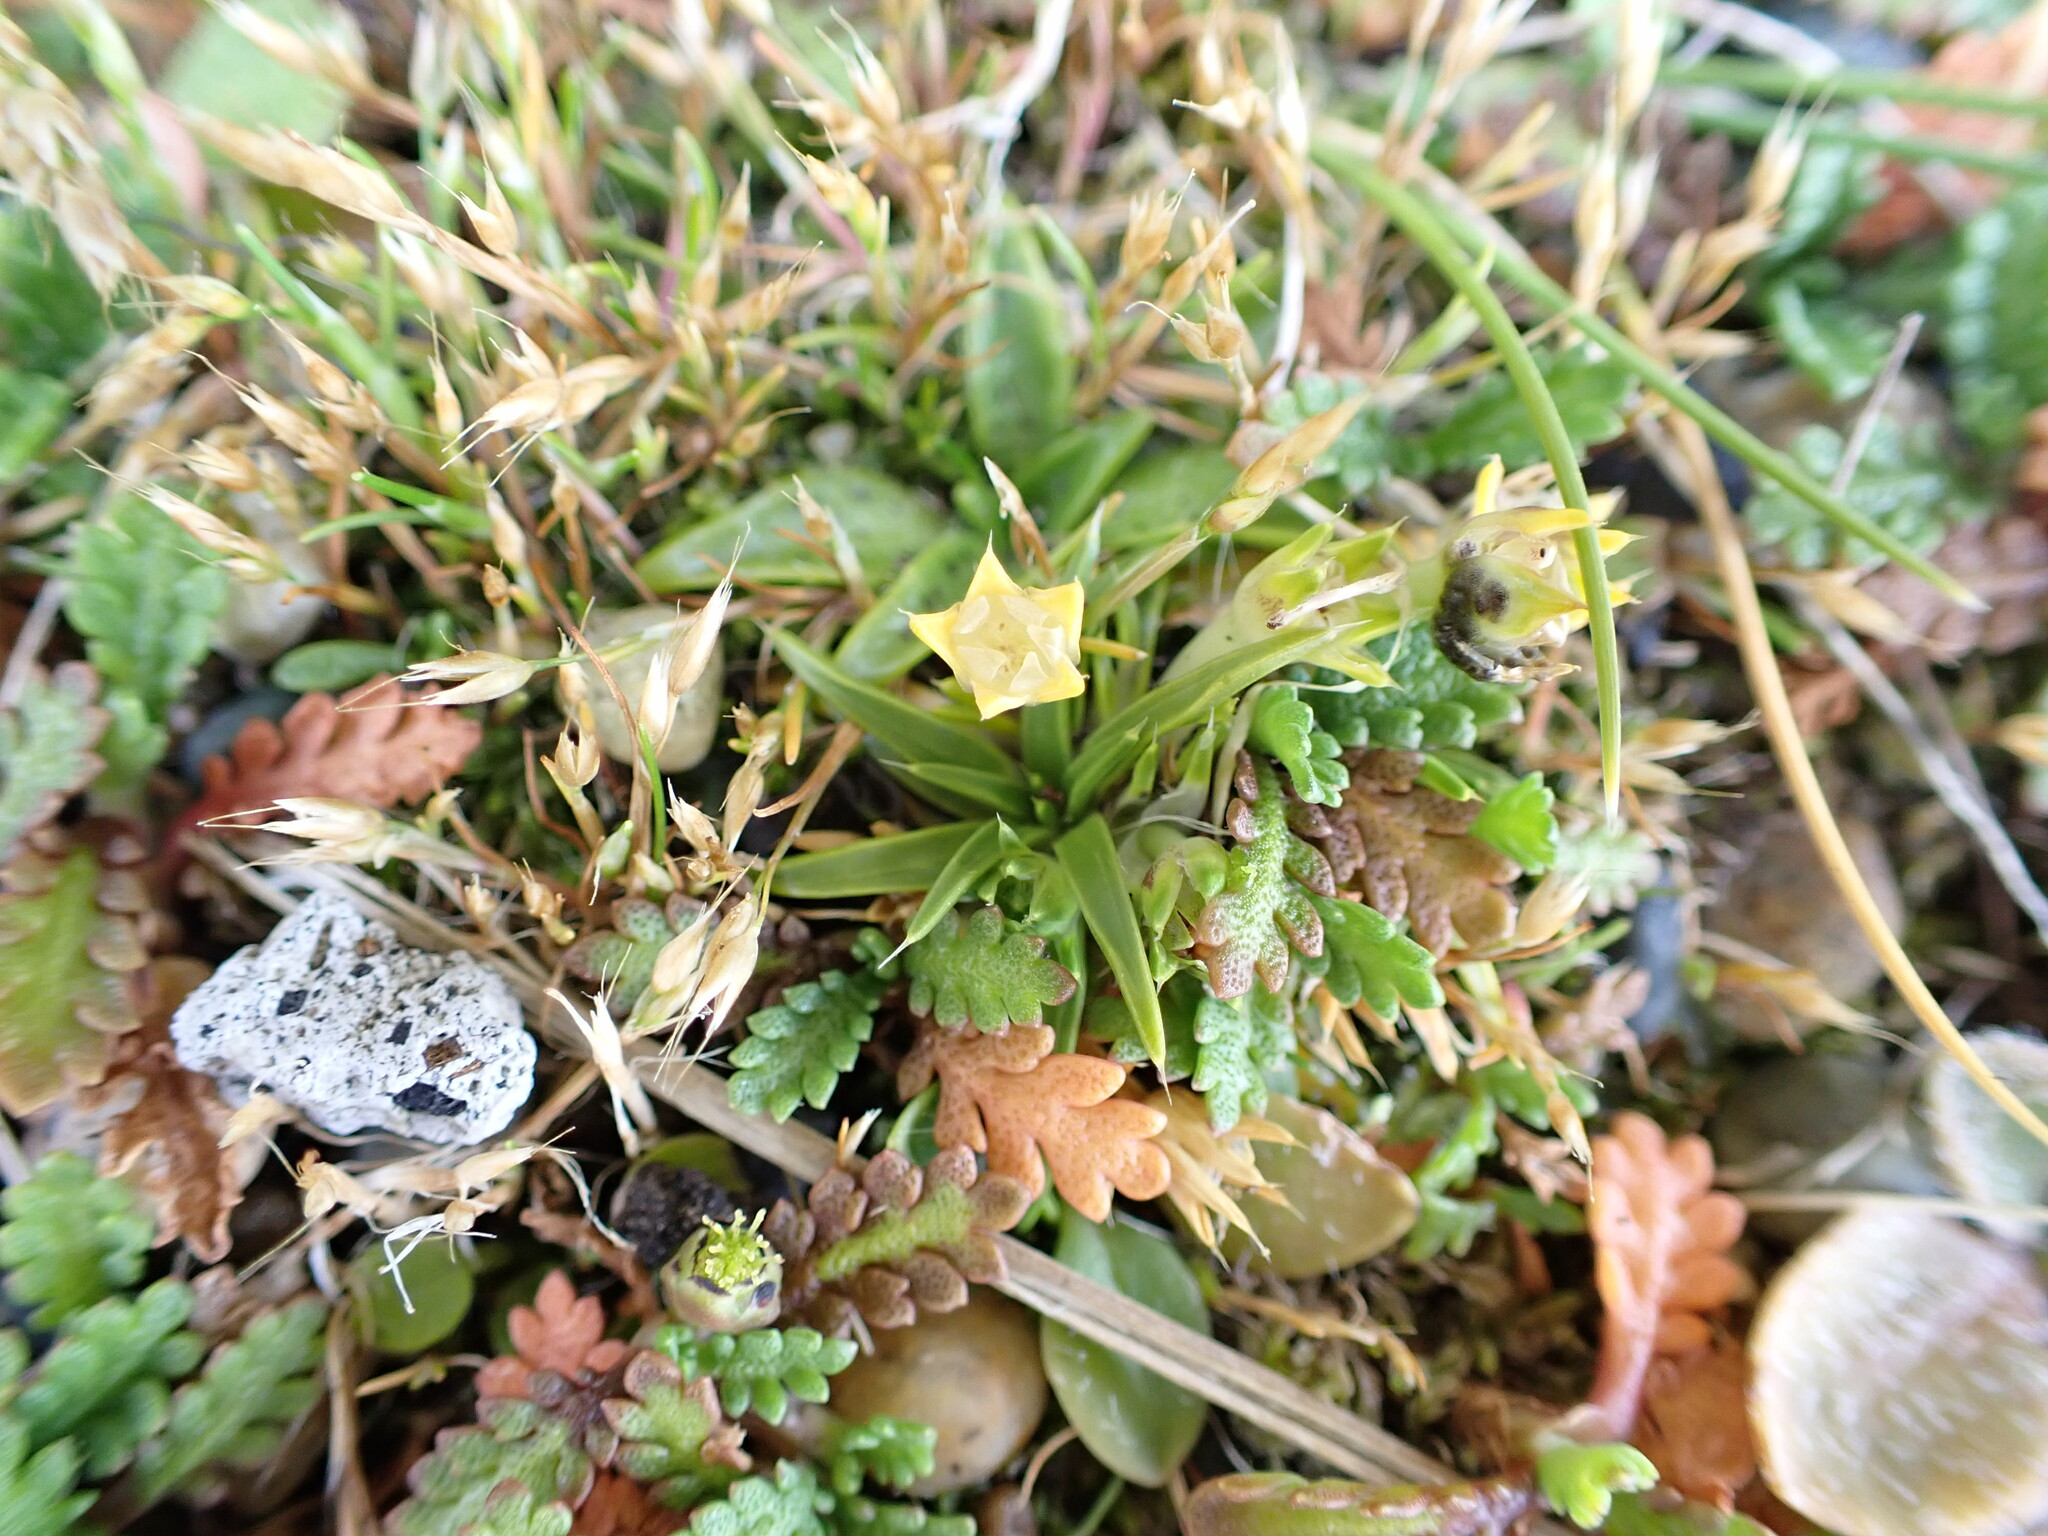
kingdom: Plantae
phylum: Tracheophyta
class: Magnoliopsida
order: Caryophyllales
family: Caryophyllaceae
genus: Colobanthus
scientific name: Colobanthus muelleri
